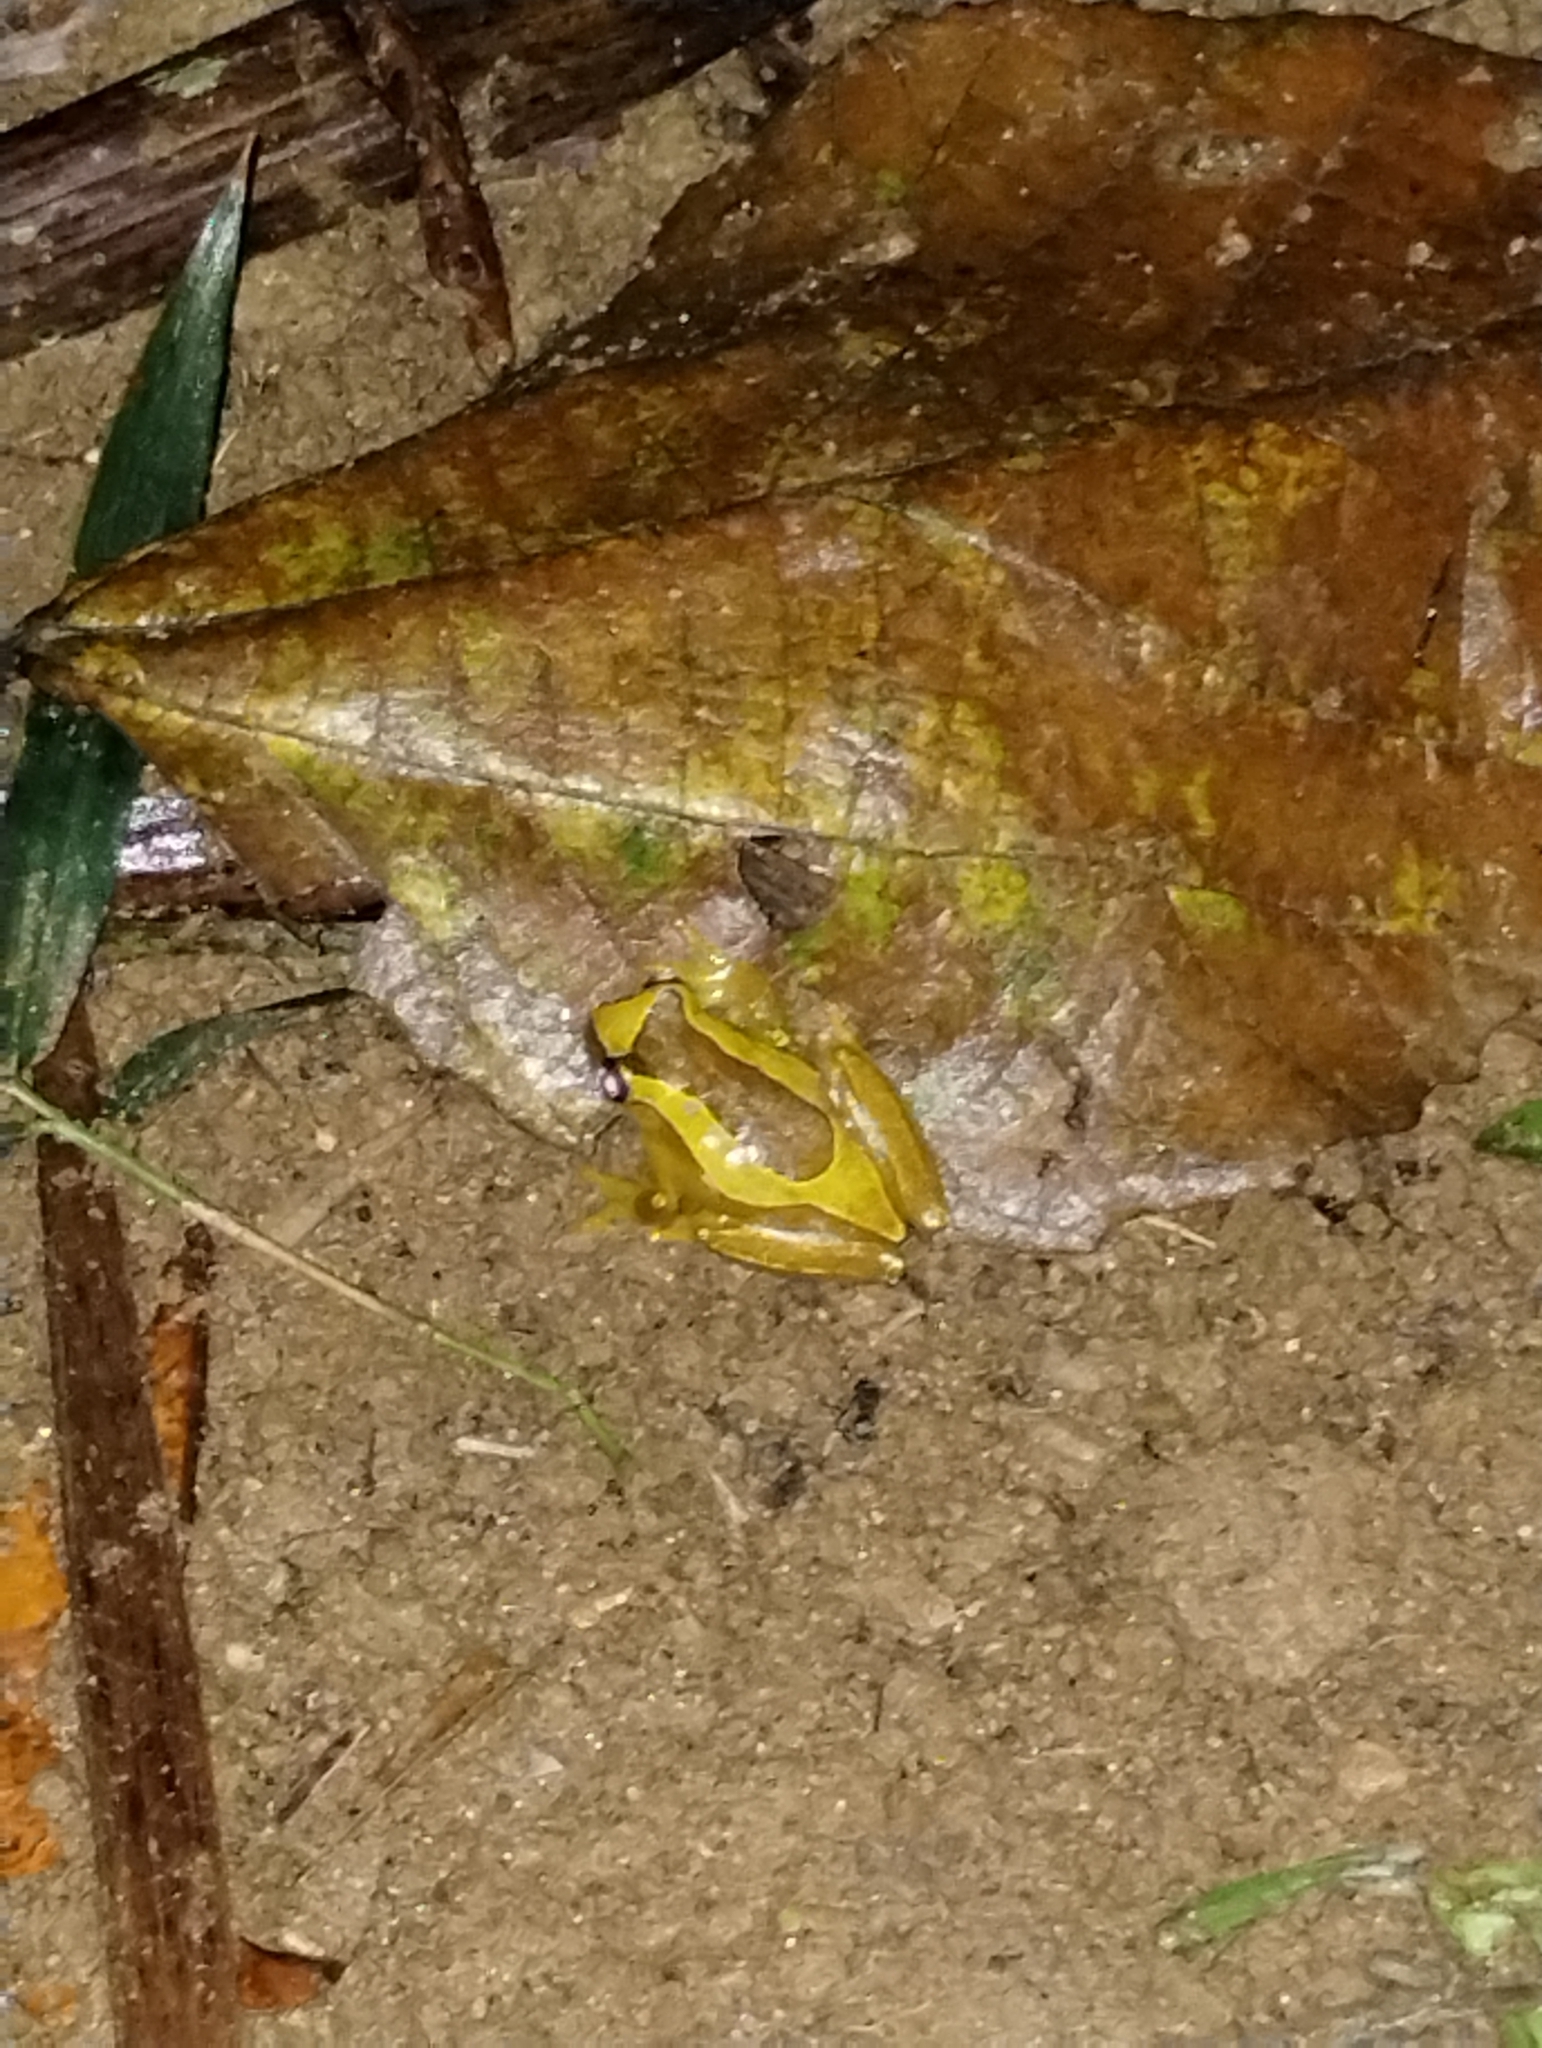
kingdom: Animalia
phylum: Chordata
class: Amphibia
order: Anura
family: Hylidae
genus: Dendropsophus
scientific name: Dendropsophus elegans
